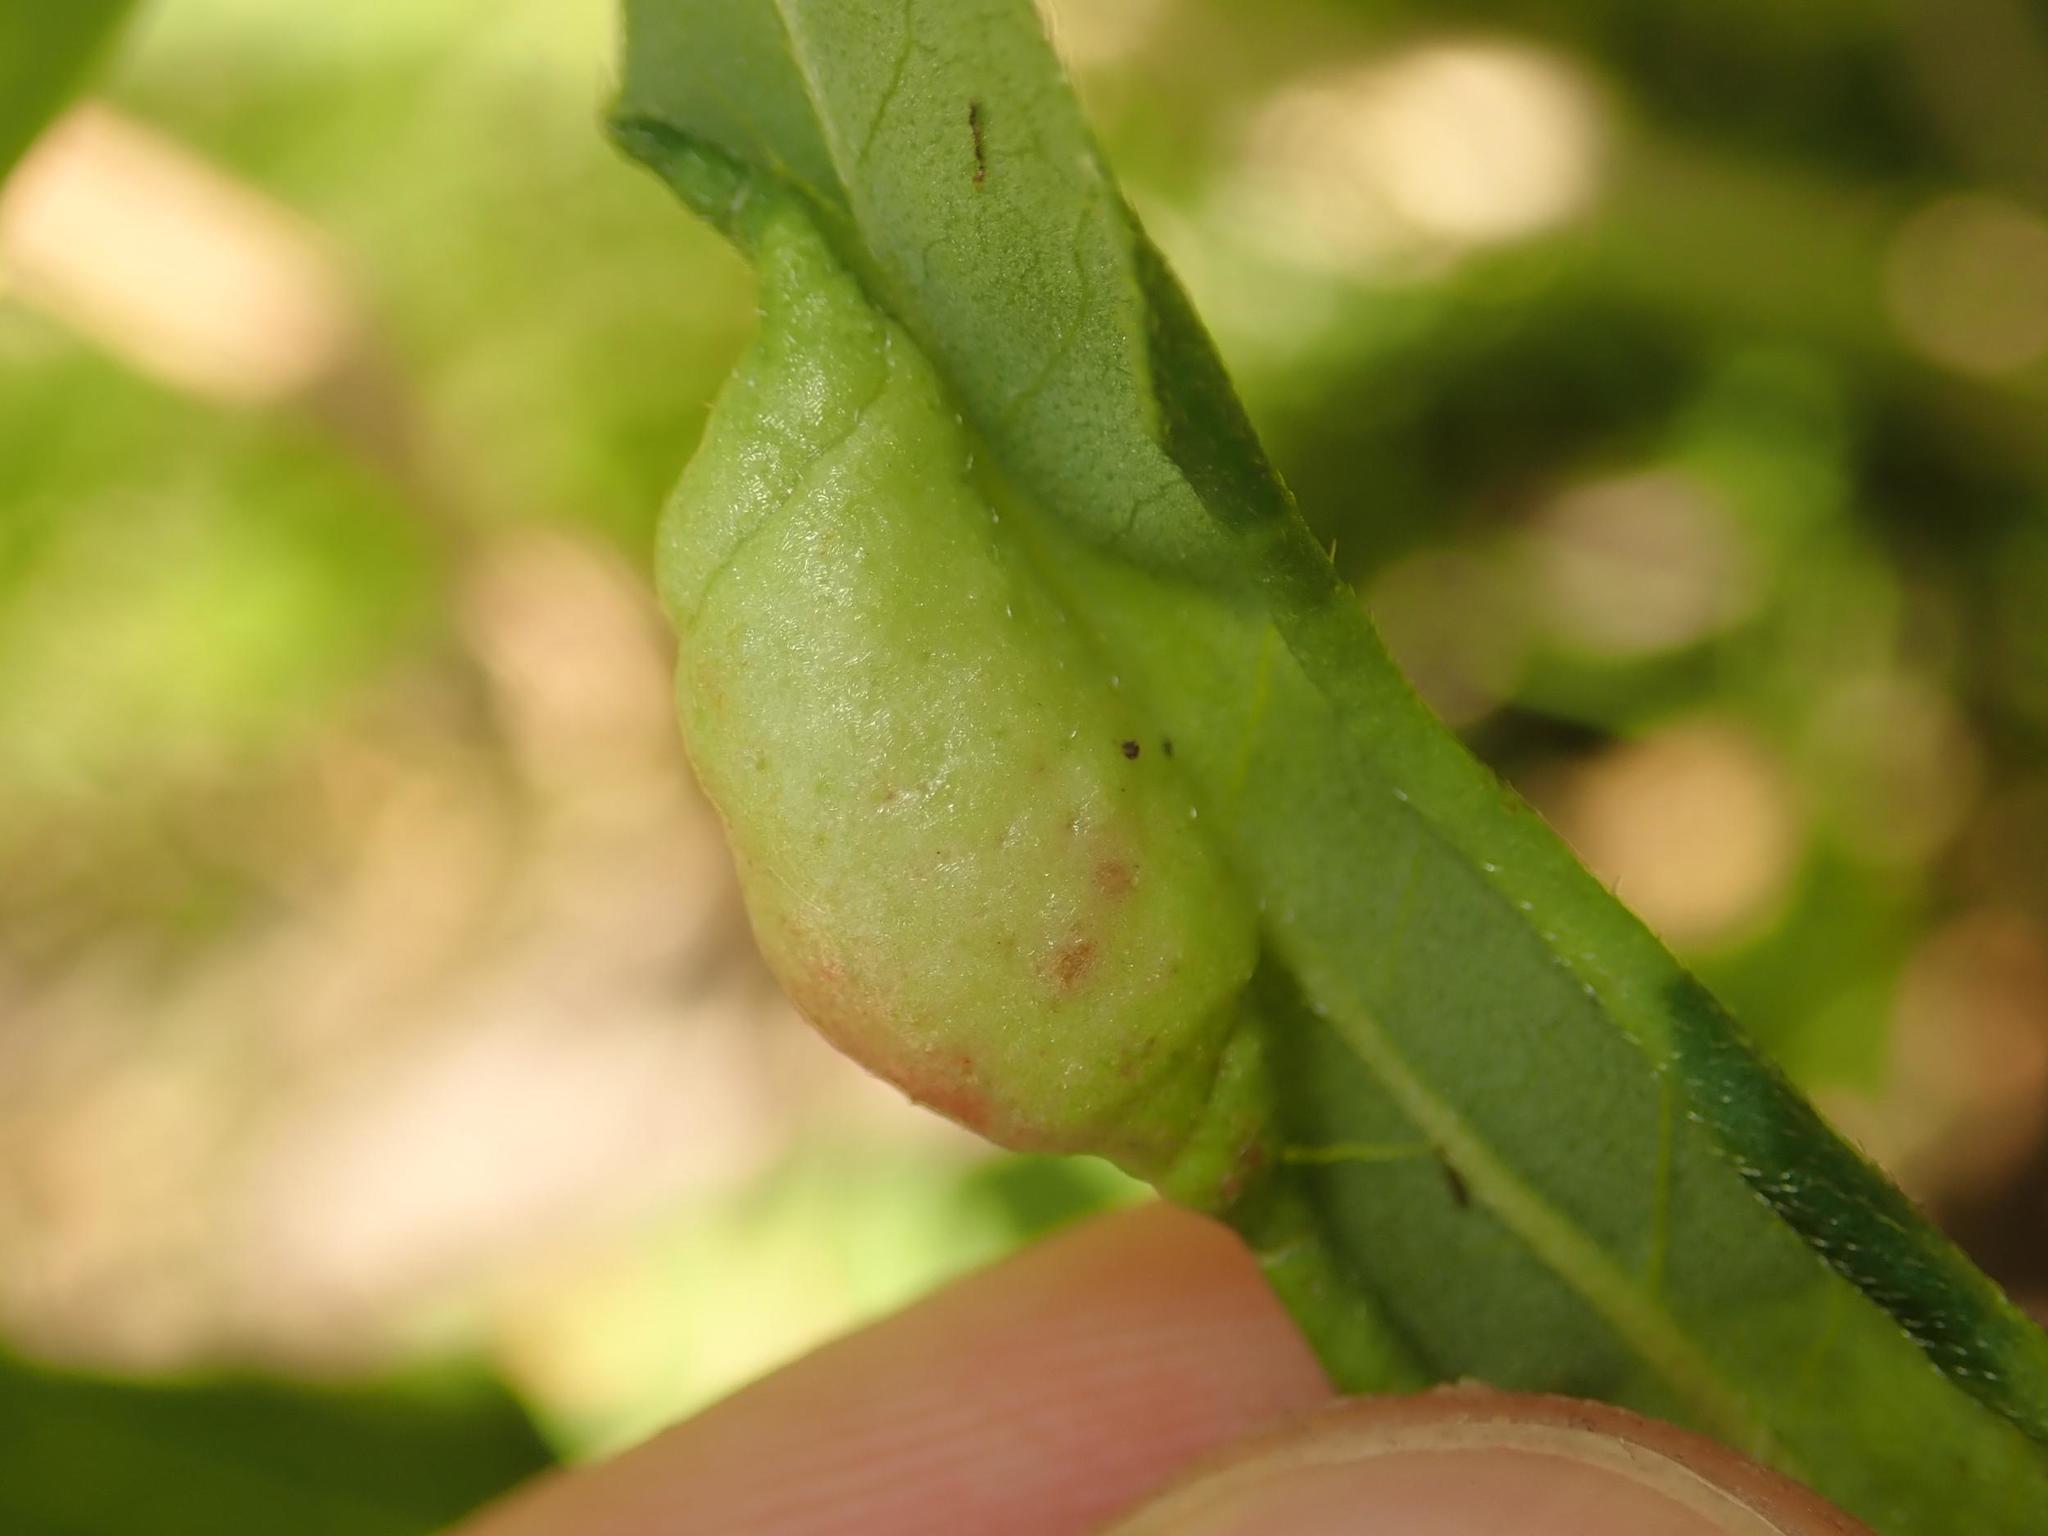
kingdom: Animalia
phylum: Arthropoda
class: Insecta
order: Diptera
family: Cecidomyiidae
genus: Wachtliella
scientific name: Wachtliella persicariae
